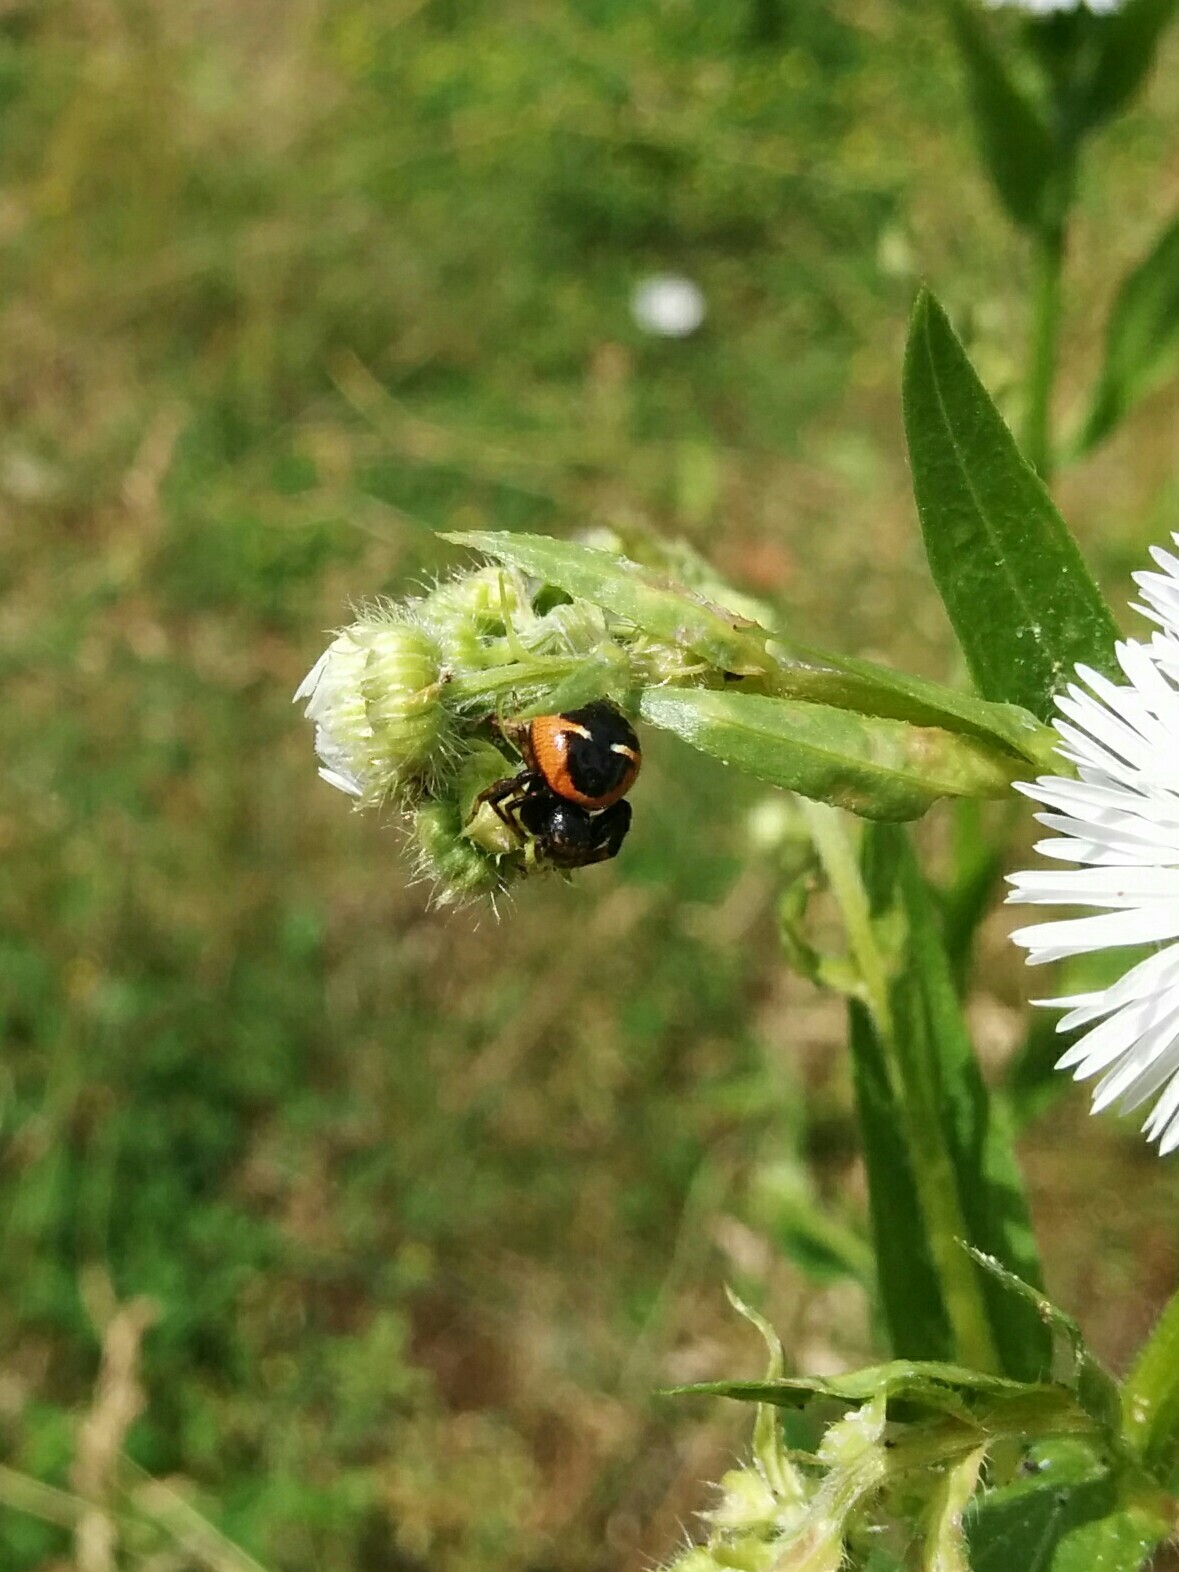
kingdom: Animalia
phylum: Arthropoda
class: Arachnida
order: Araneae
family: Thomisidae
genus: Synema
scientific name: Synema globosum
